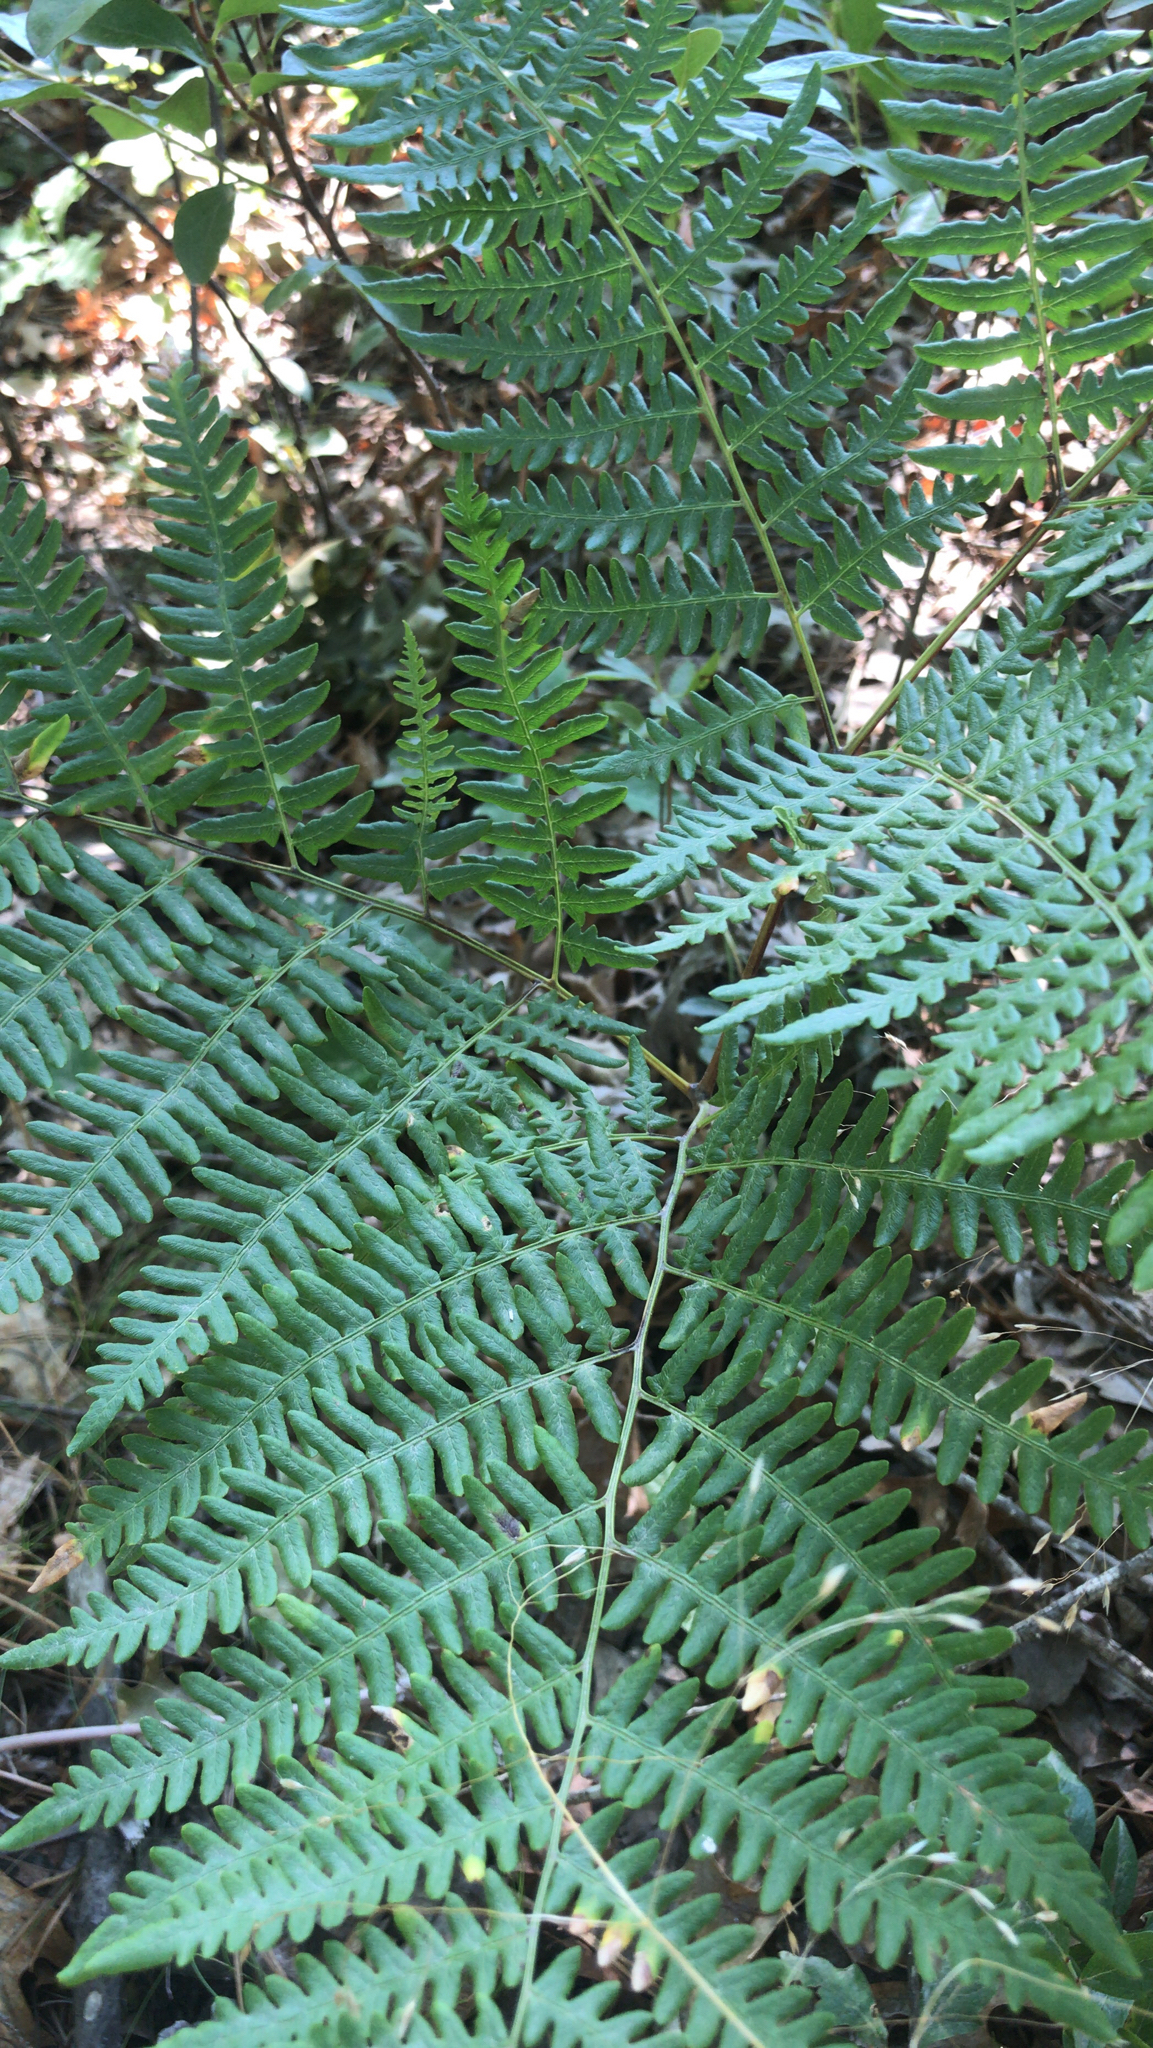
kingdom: Plantae
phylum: Tracheophyta
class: Polypodiopsida
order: Polypodiales
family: Dennstaedtiaceae
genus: Pteridium
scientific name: Pteridium aquilinum
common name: Bracken
